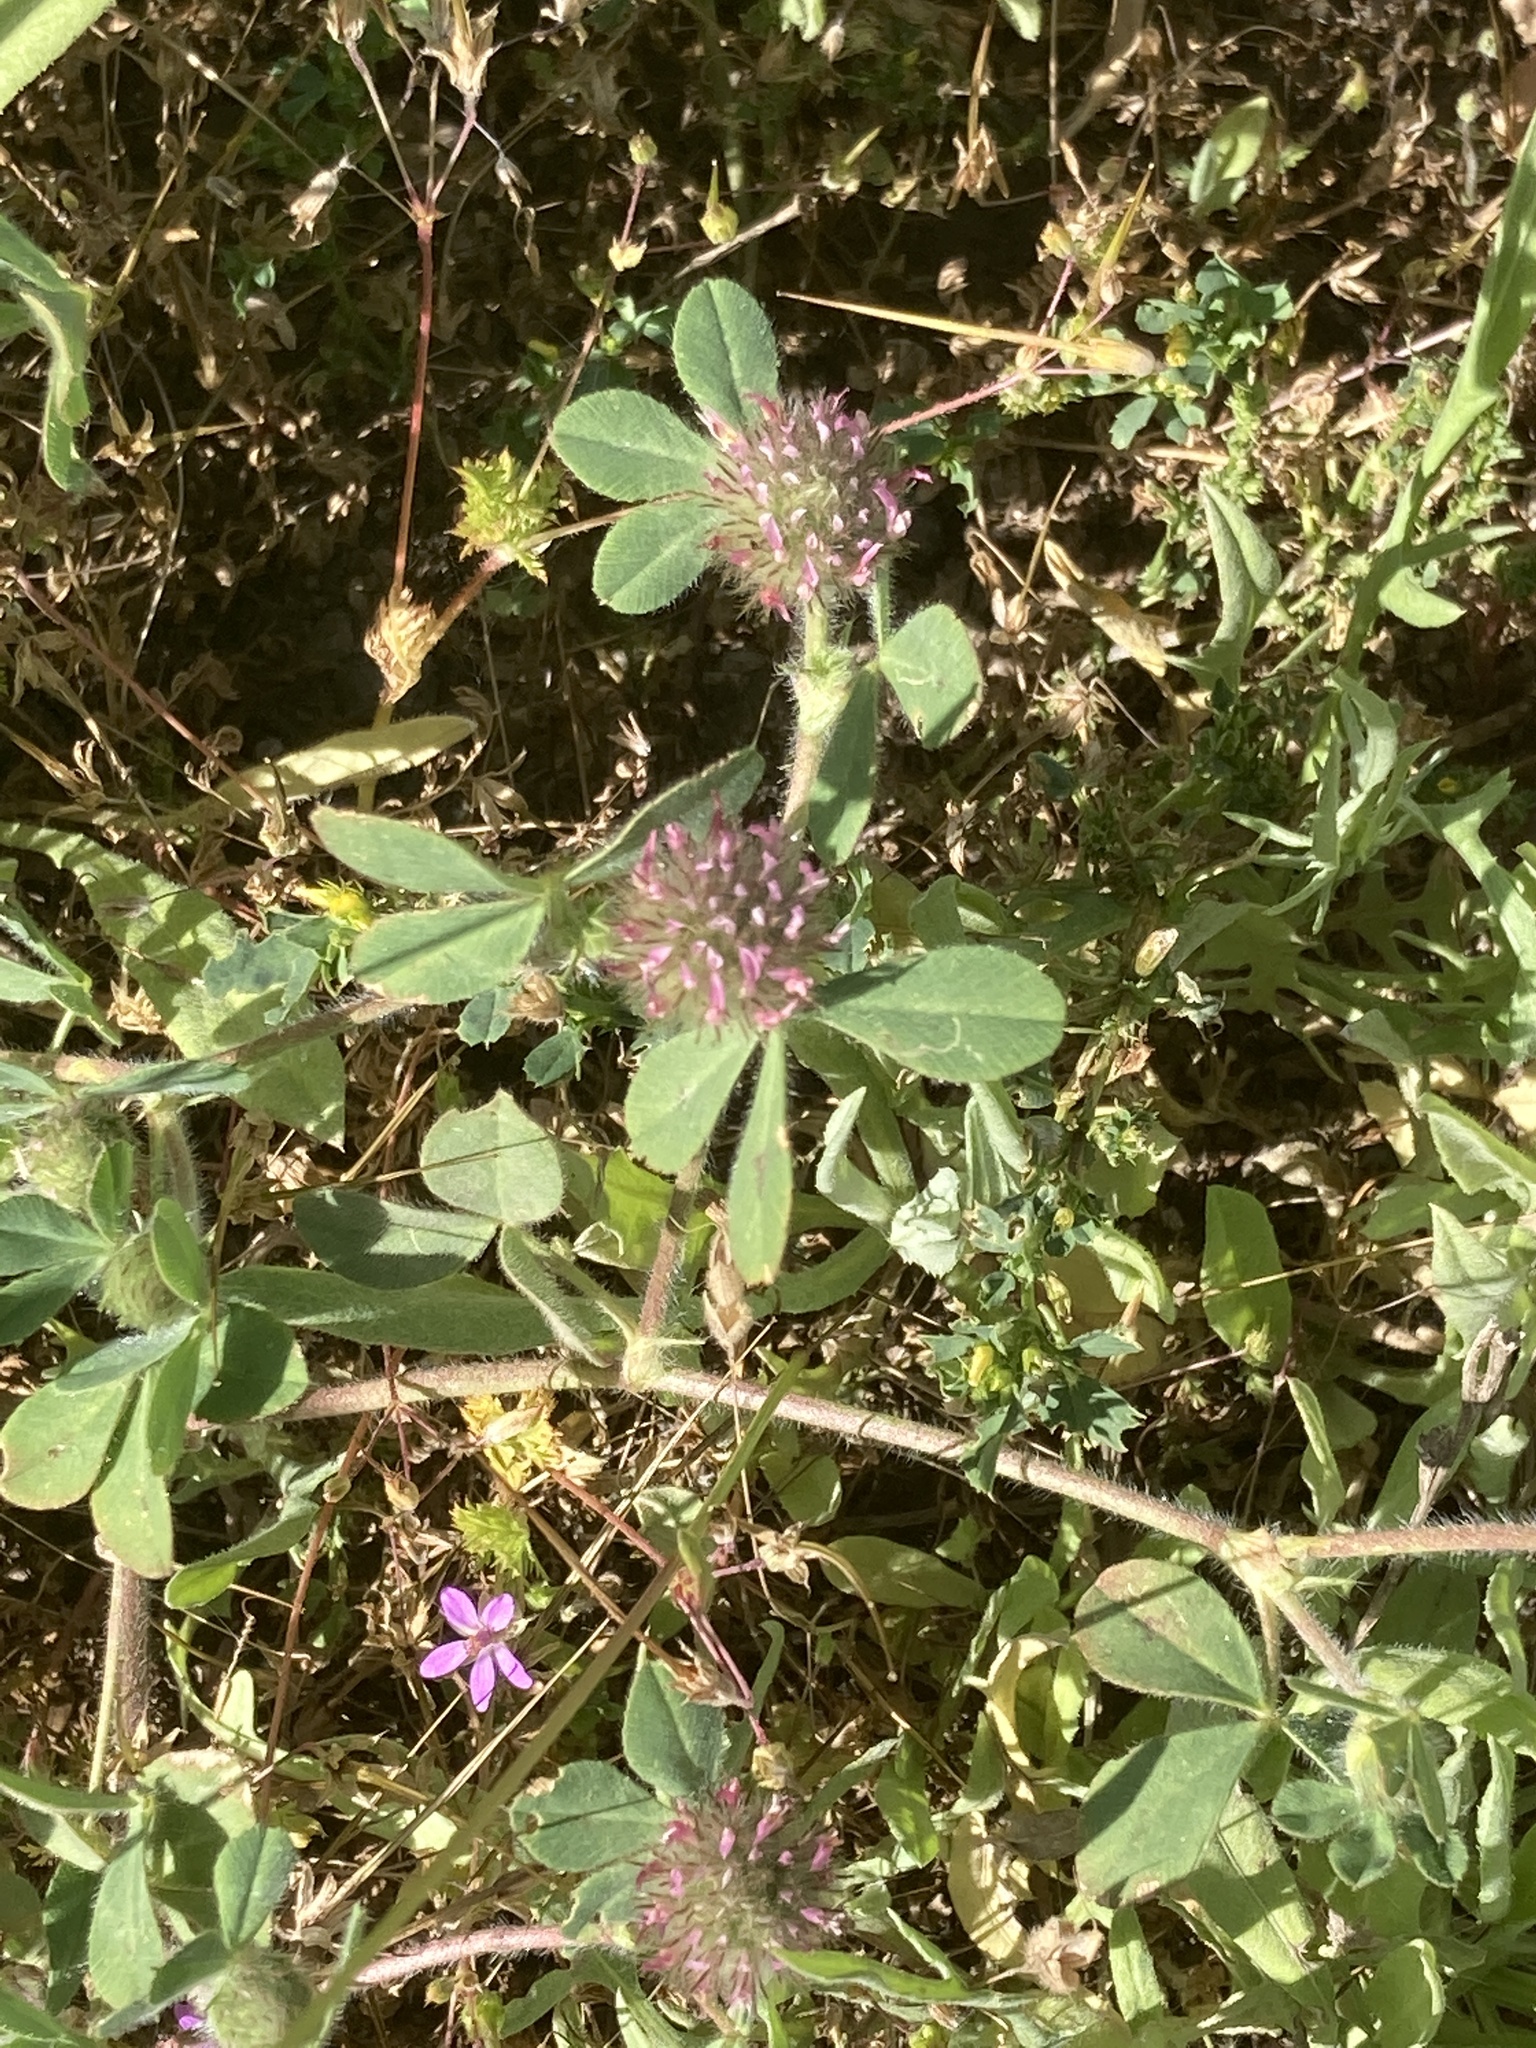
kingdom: Plantae
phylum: Tracheophyta
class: Magnoliopsida
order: Fabales
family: Fabaceae
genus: Trifolium
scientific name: Trifolium hirtum
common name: Rose clover
